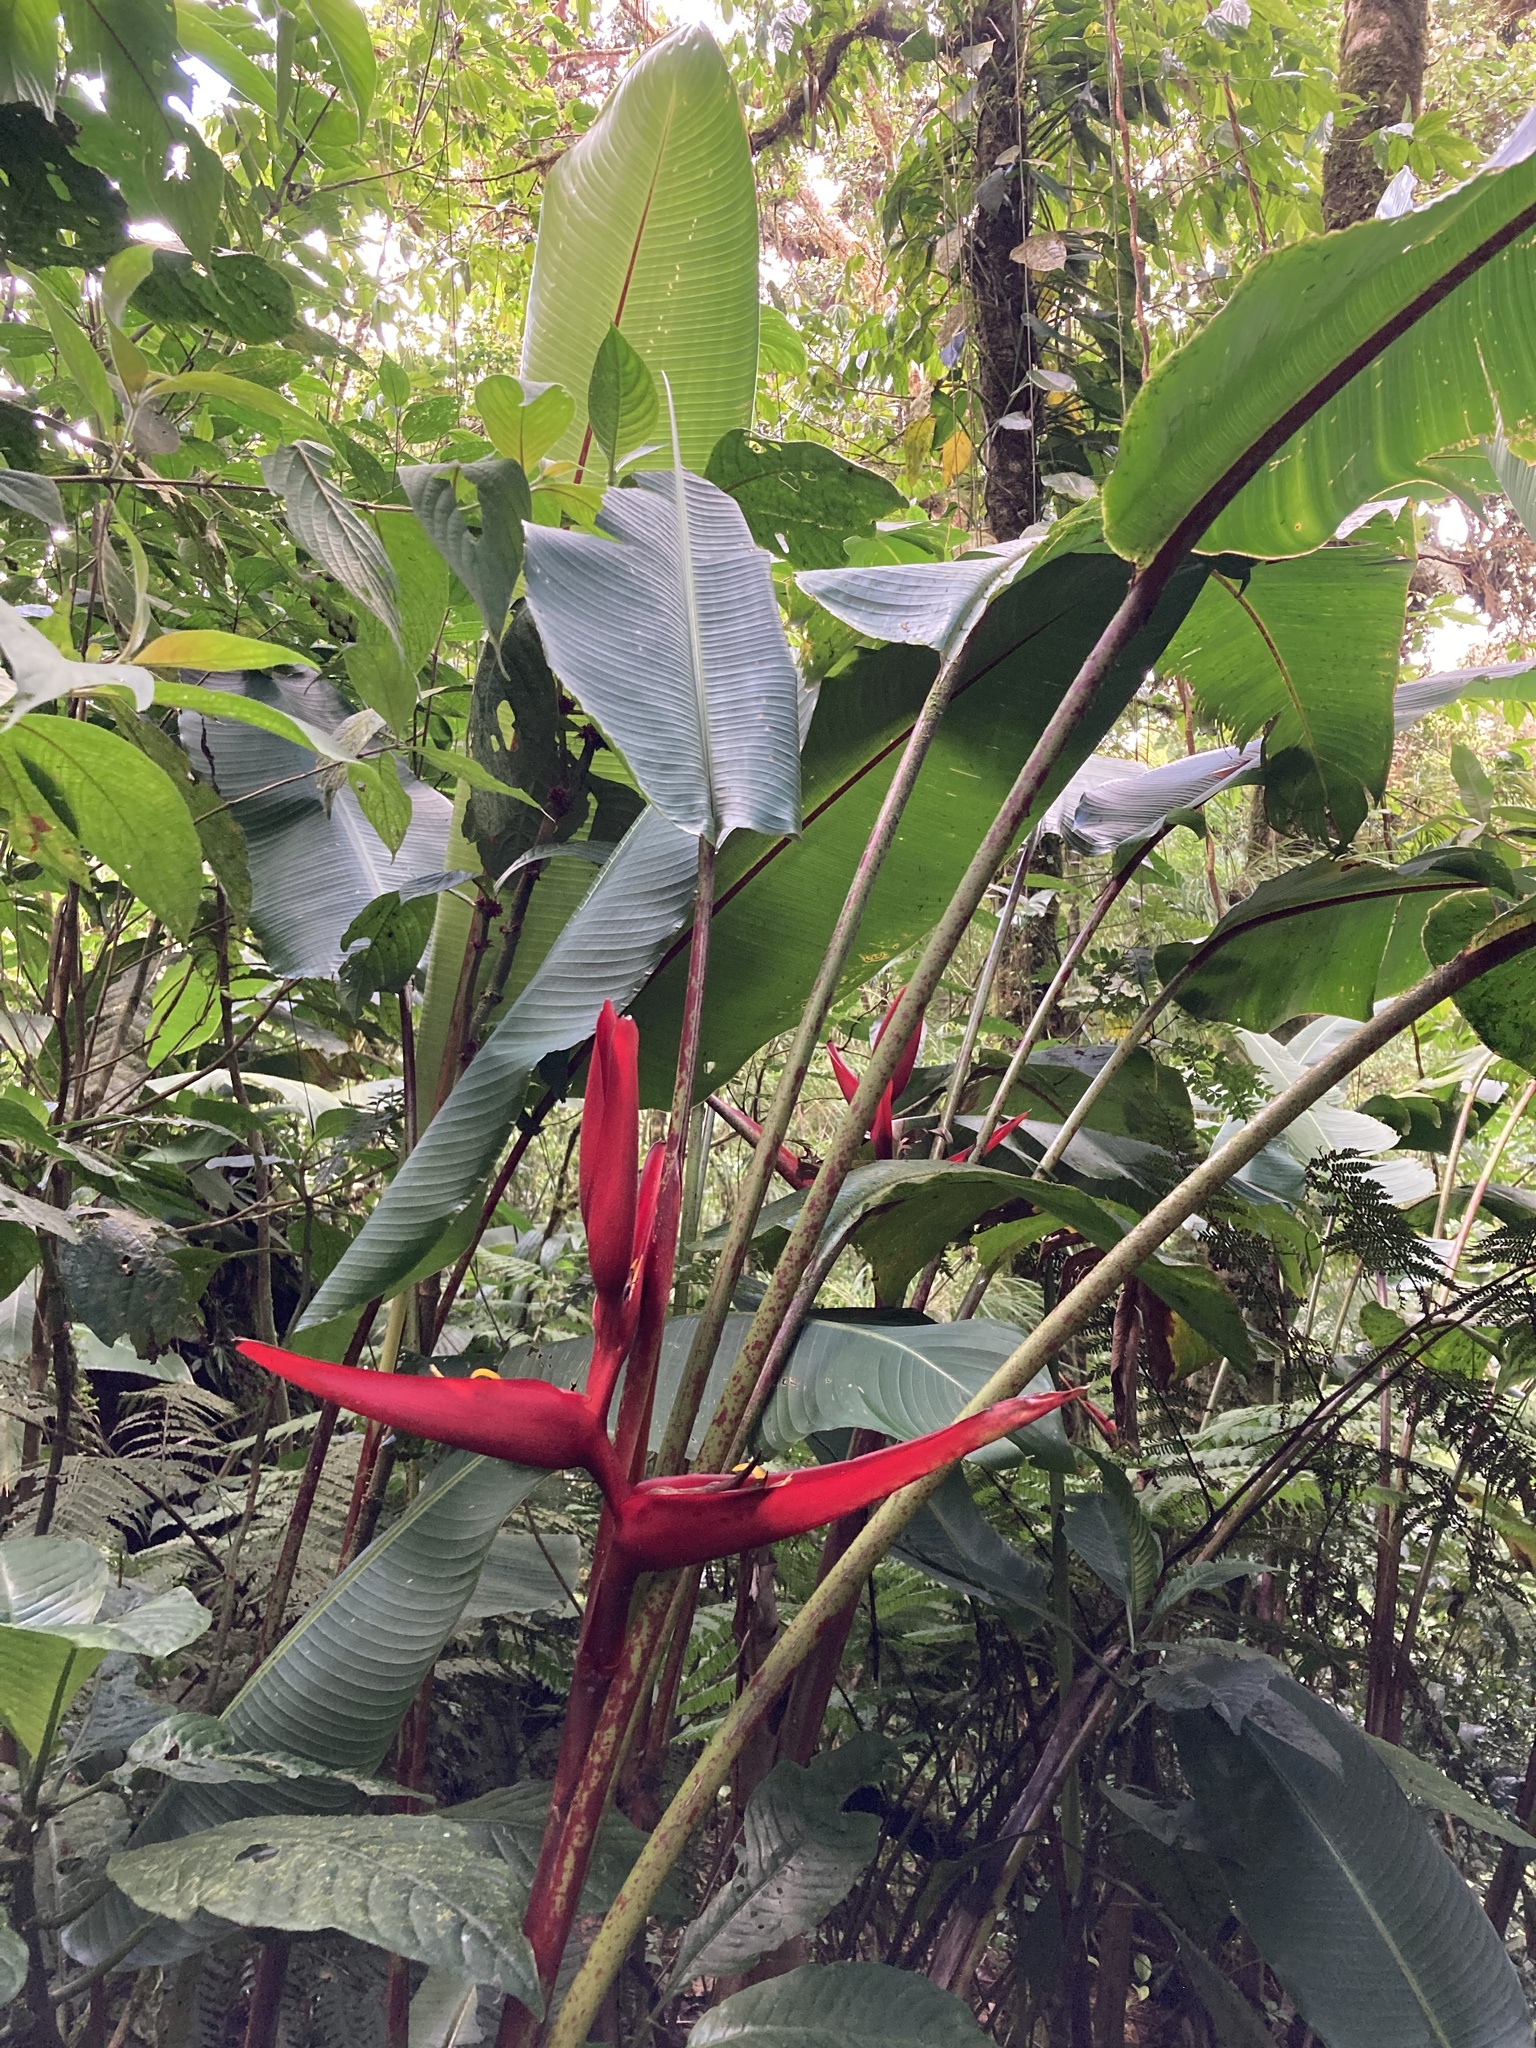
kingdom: Plantae
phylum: Tracheophyta
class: Liliopsida
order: Zingiberales
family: Heliconiaceae
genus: Heliconia
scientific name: Heliconia tortuosa
